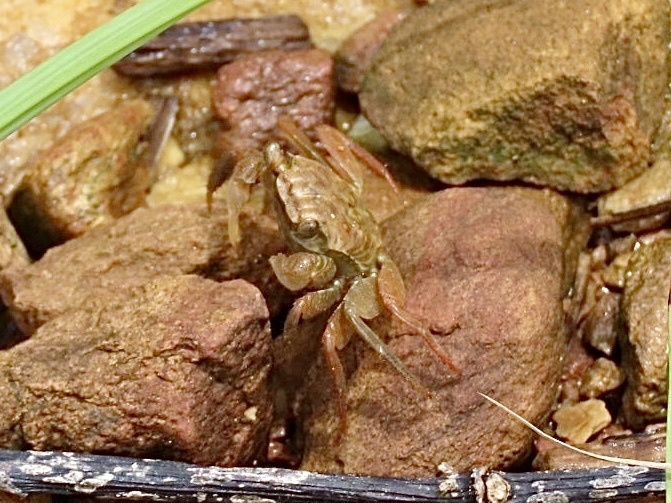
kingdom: Animalia
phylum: Arthropoda
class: Malacostraca
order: Decapoda
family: Sesarmidae
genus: Parasesarma
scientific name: Parasesarma pictum
